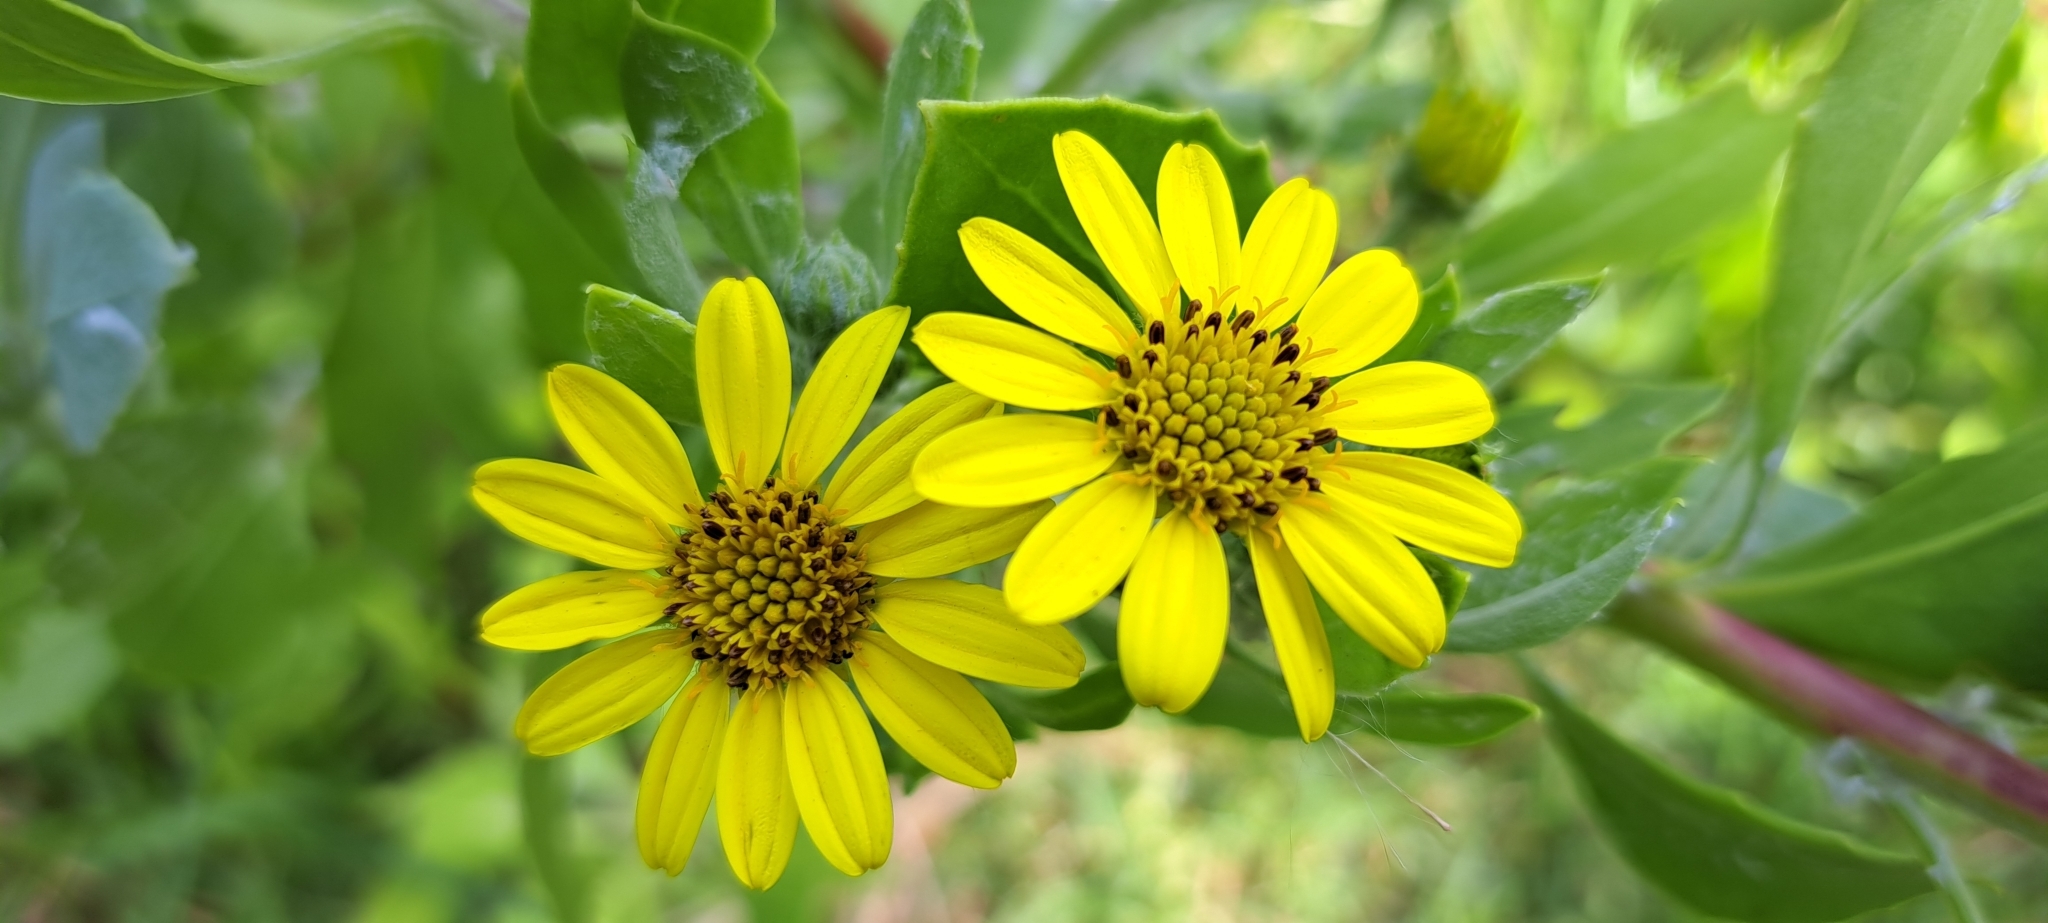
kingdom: Plantae
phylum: Tracheophyta
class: Magnoliopsida
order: Asterales
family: Asteraceae
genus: Osteospermum
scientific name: Osteospermum moniliferum
